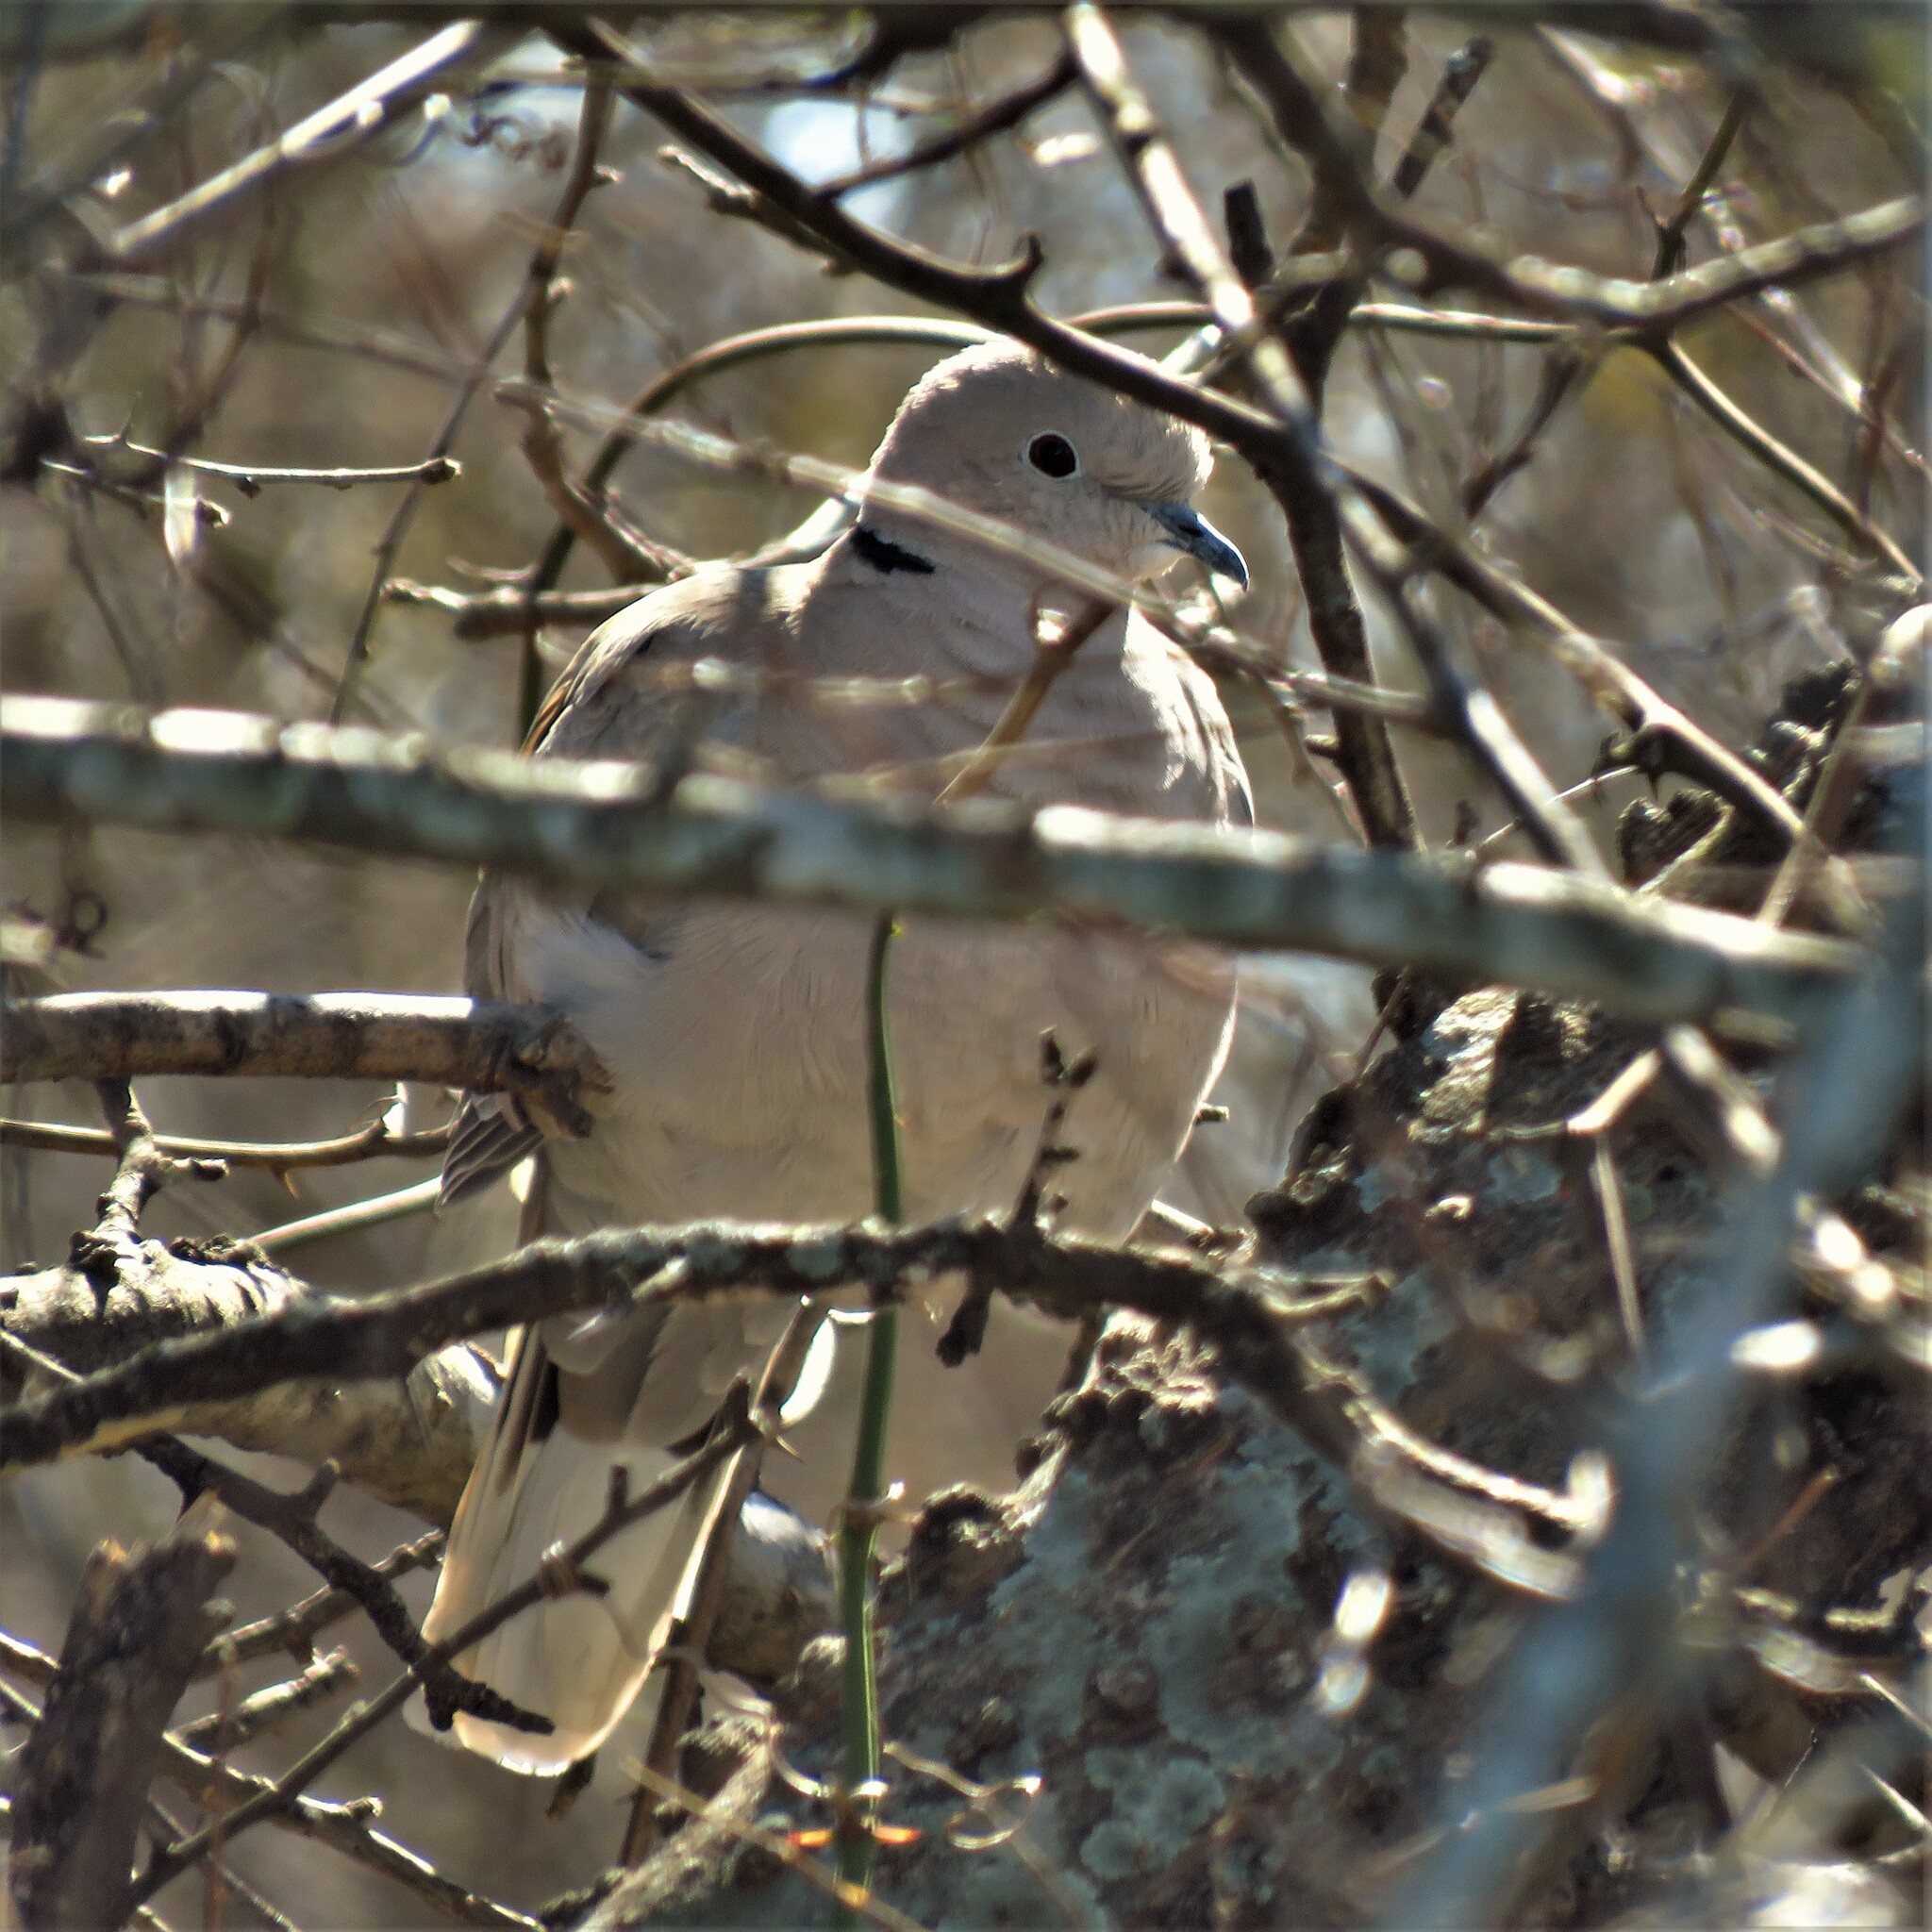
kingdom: Animalia
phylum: Chordata
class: Aves
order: Columbiformes
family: Columbidae
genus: Streptopelia
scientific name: Streptopelia decaocto
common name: Eurasian collared dove
